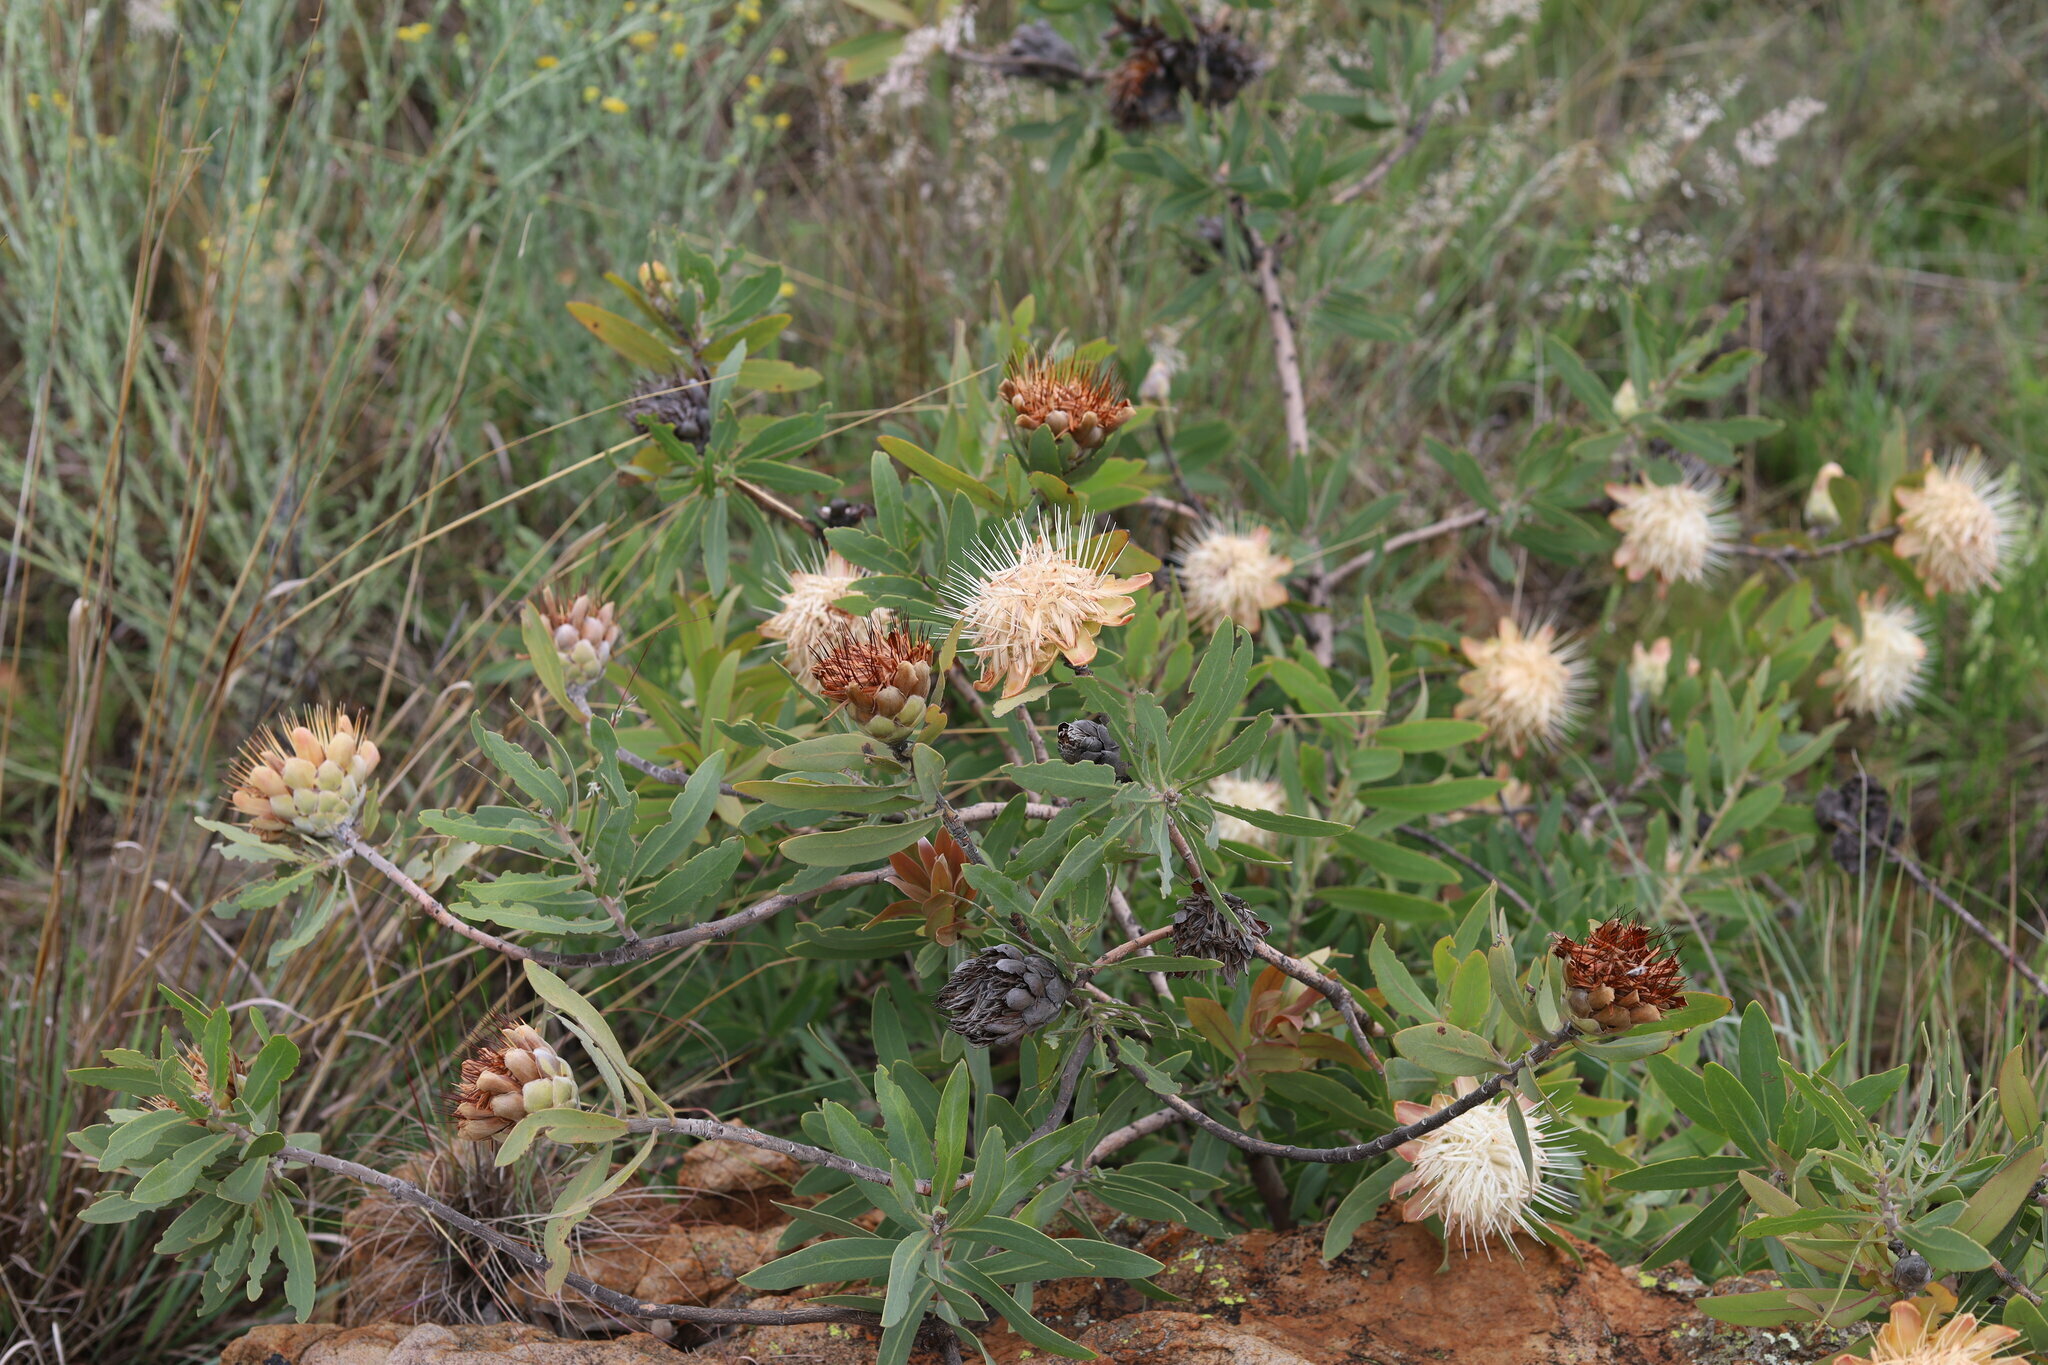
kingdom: Plantae
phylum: Tracheophyta
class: Magnoliopsida
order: Proteales
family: Proteaceae
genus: Protea
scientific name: Protea welwitschii
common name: Cluster-head protea
